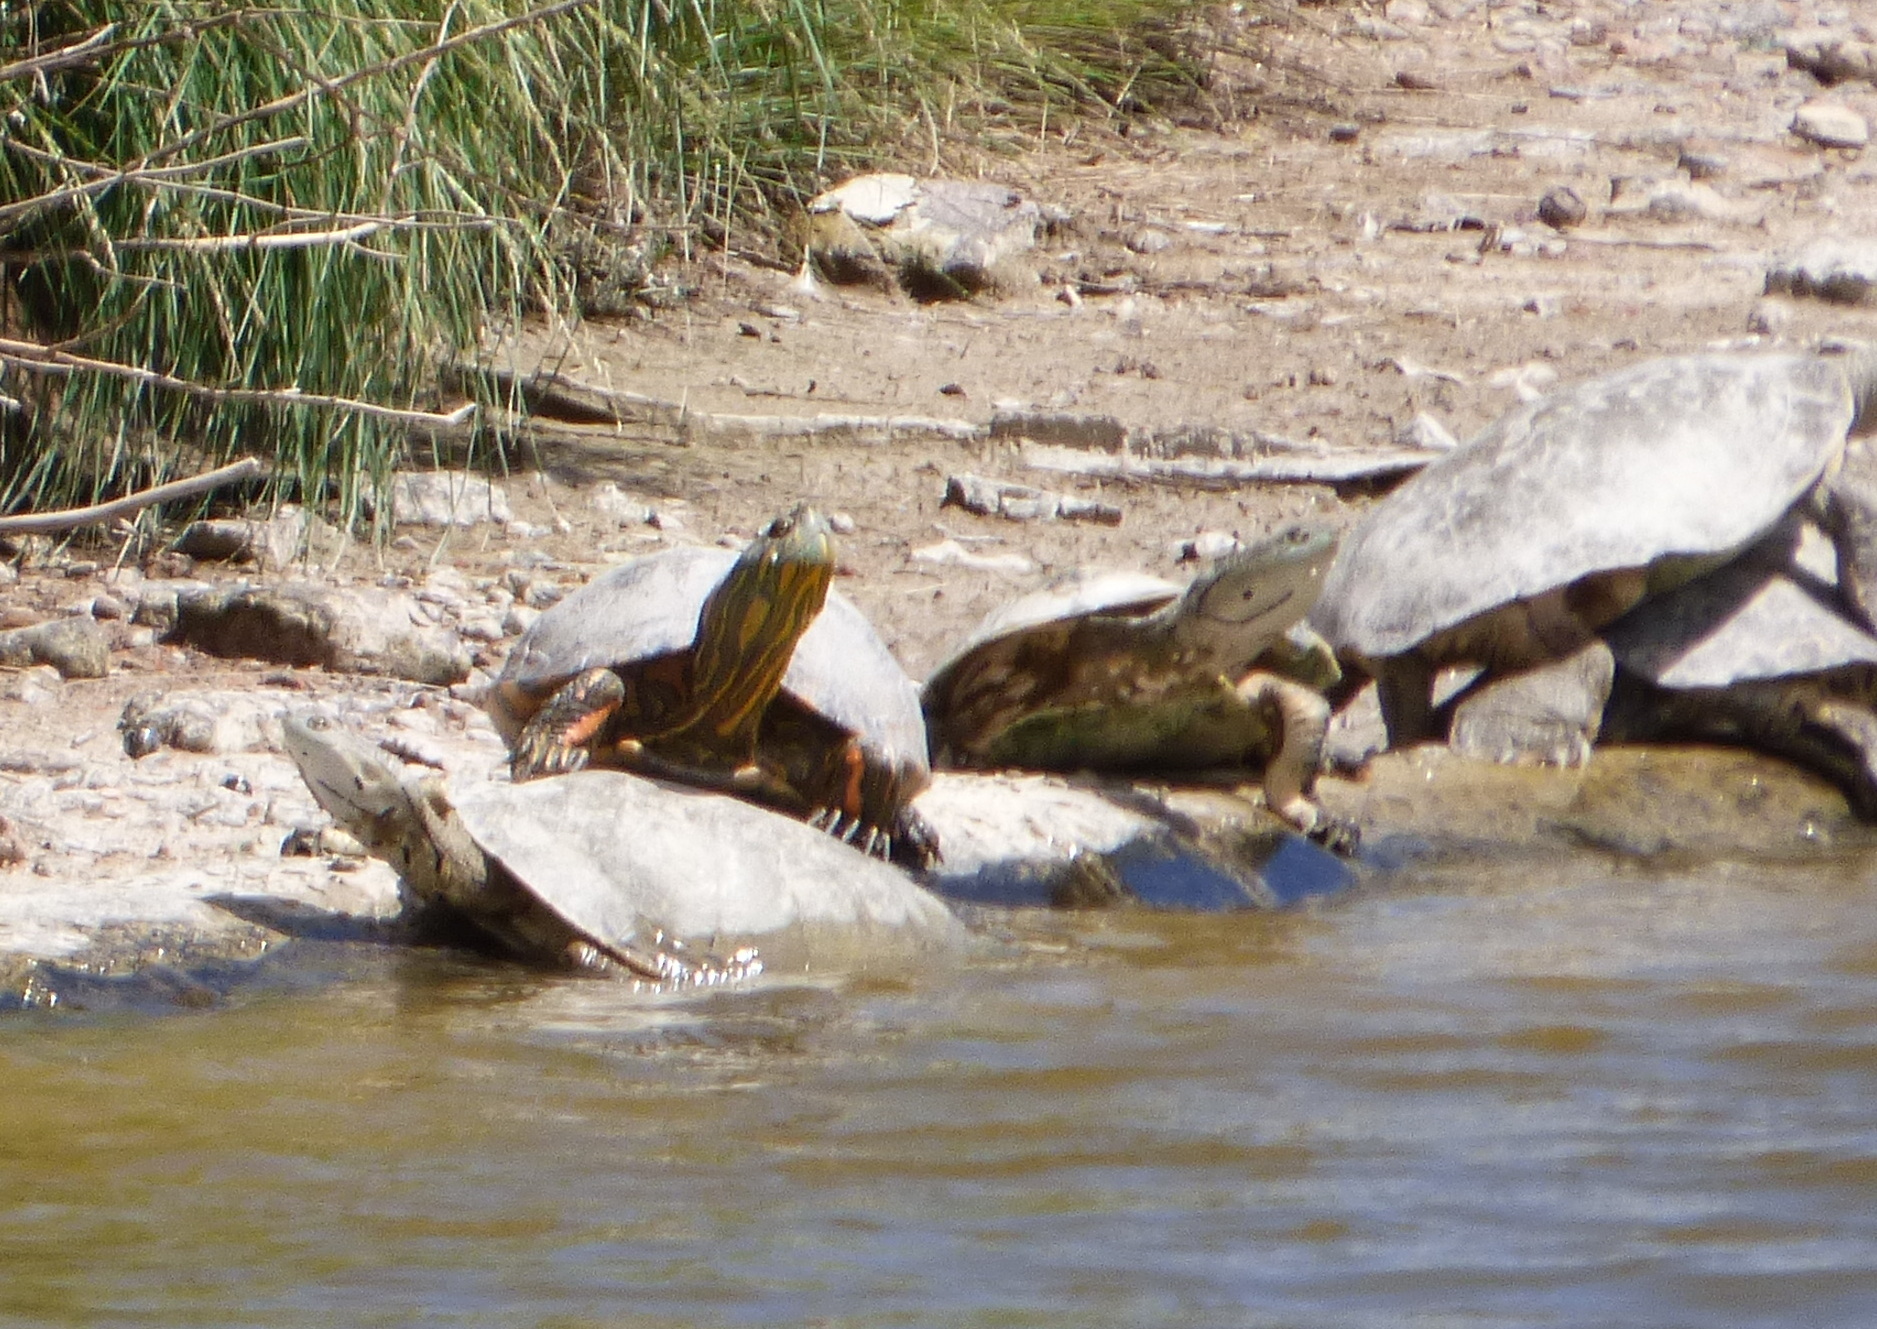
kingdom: Animalia
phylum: Chordata
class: Testudines
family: Emydidae
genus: Trachemys
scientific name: Trachemys dorbigni
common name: Black-bellied slider
